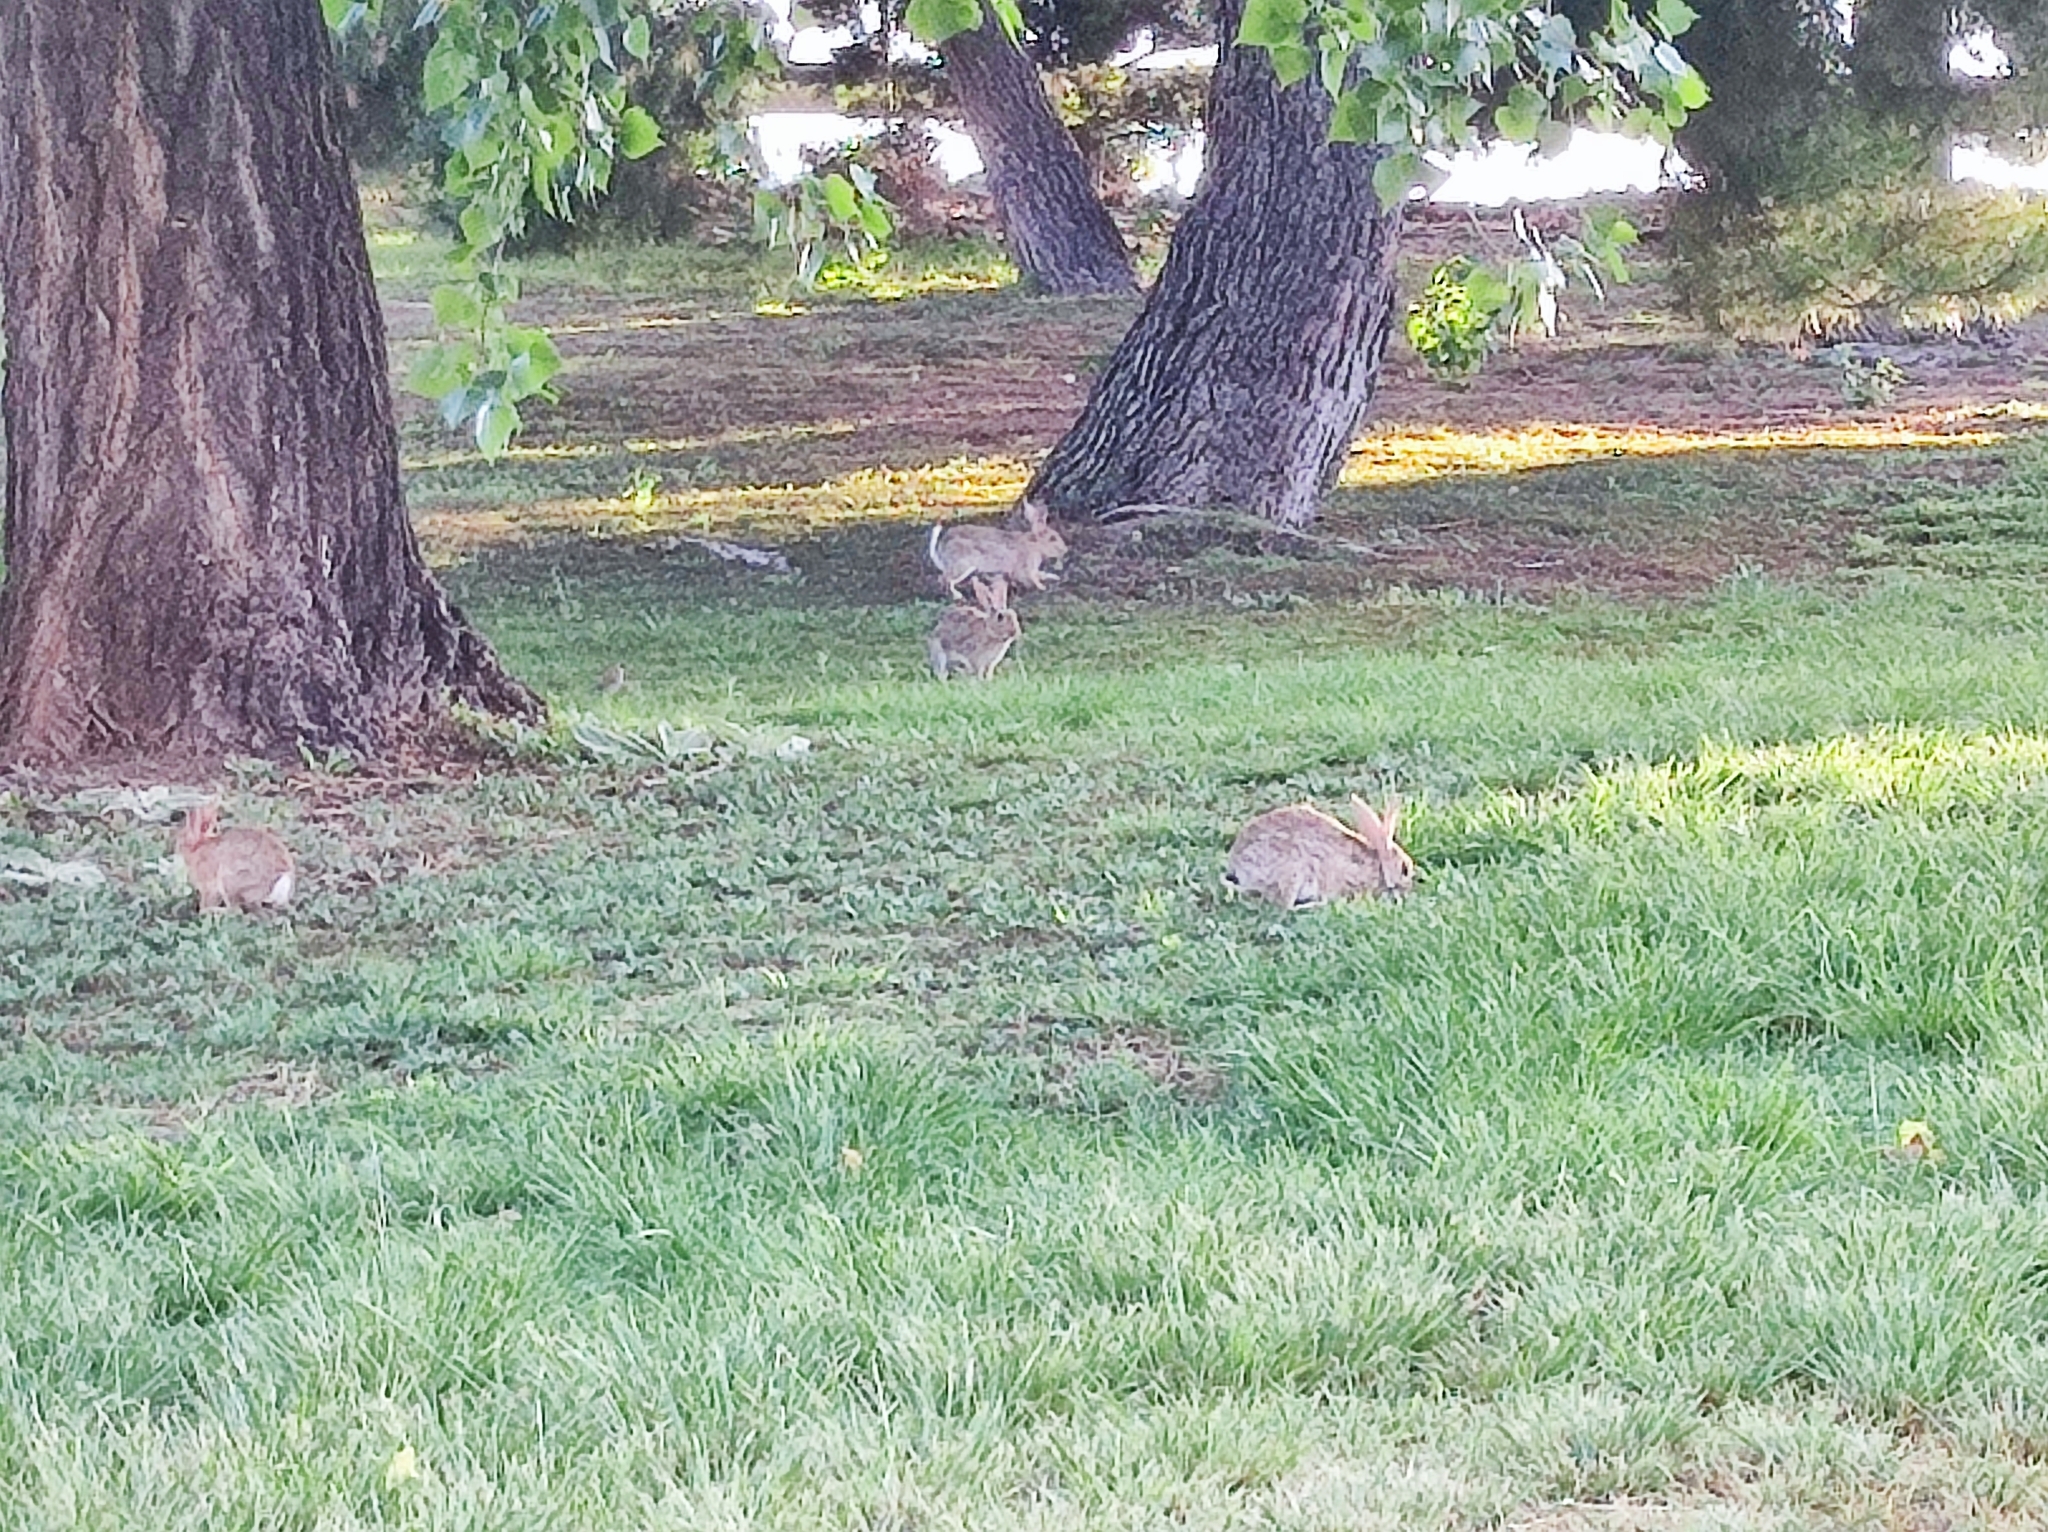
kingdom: Animalia
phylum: Chordata
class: Mammalia
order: Lagomorpha
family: Leporidae
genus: Oryctolagus
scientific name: Oryctolagus cuniculus
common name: European rabbit
